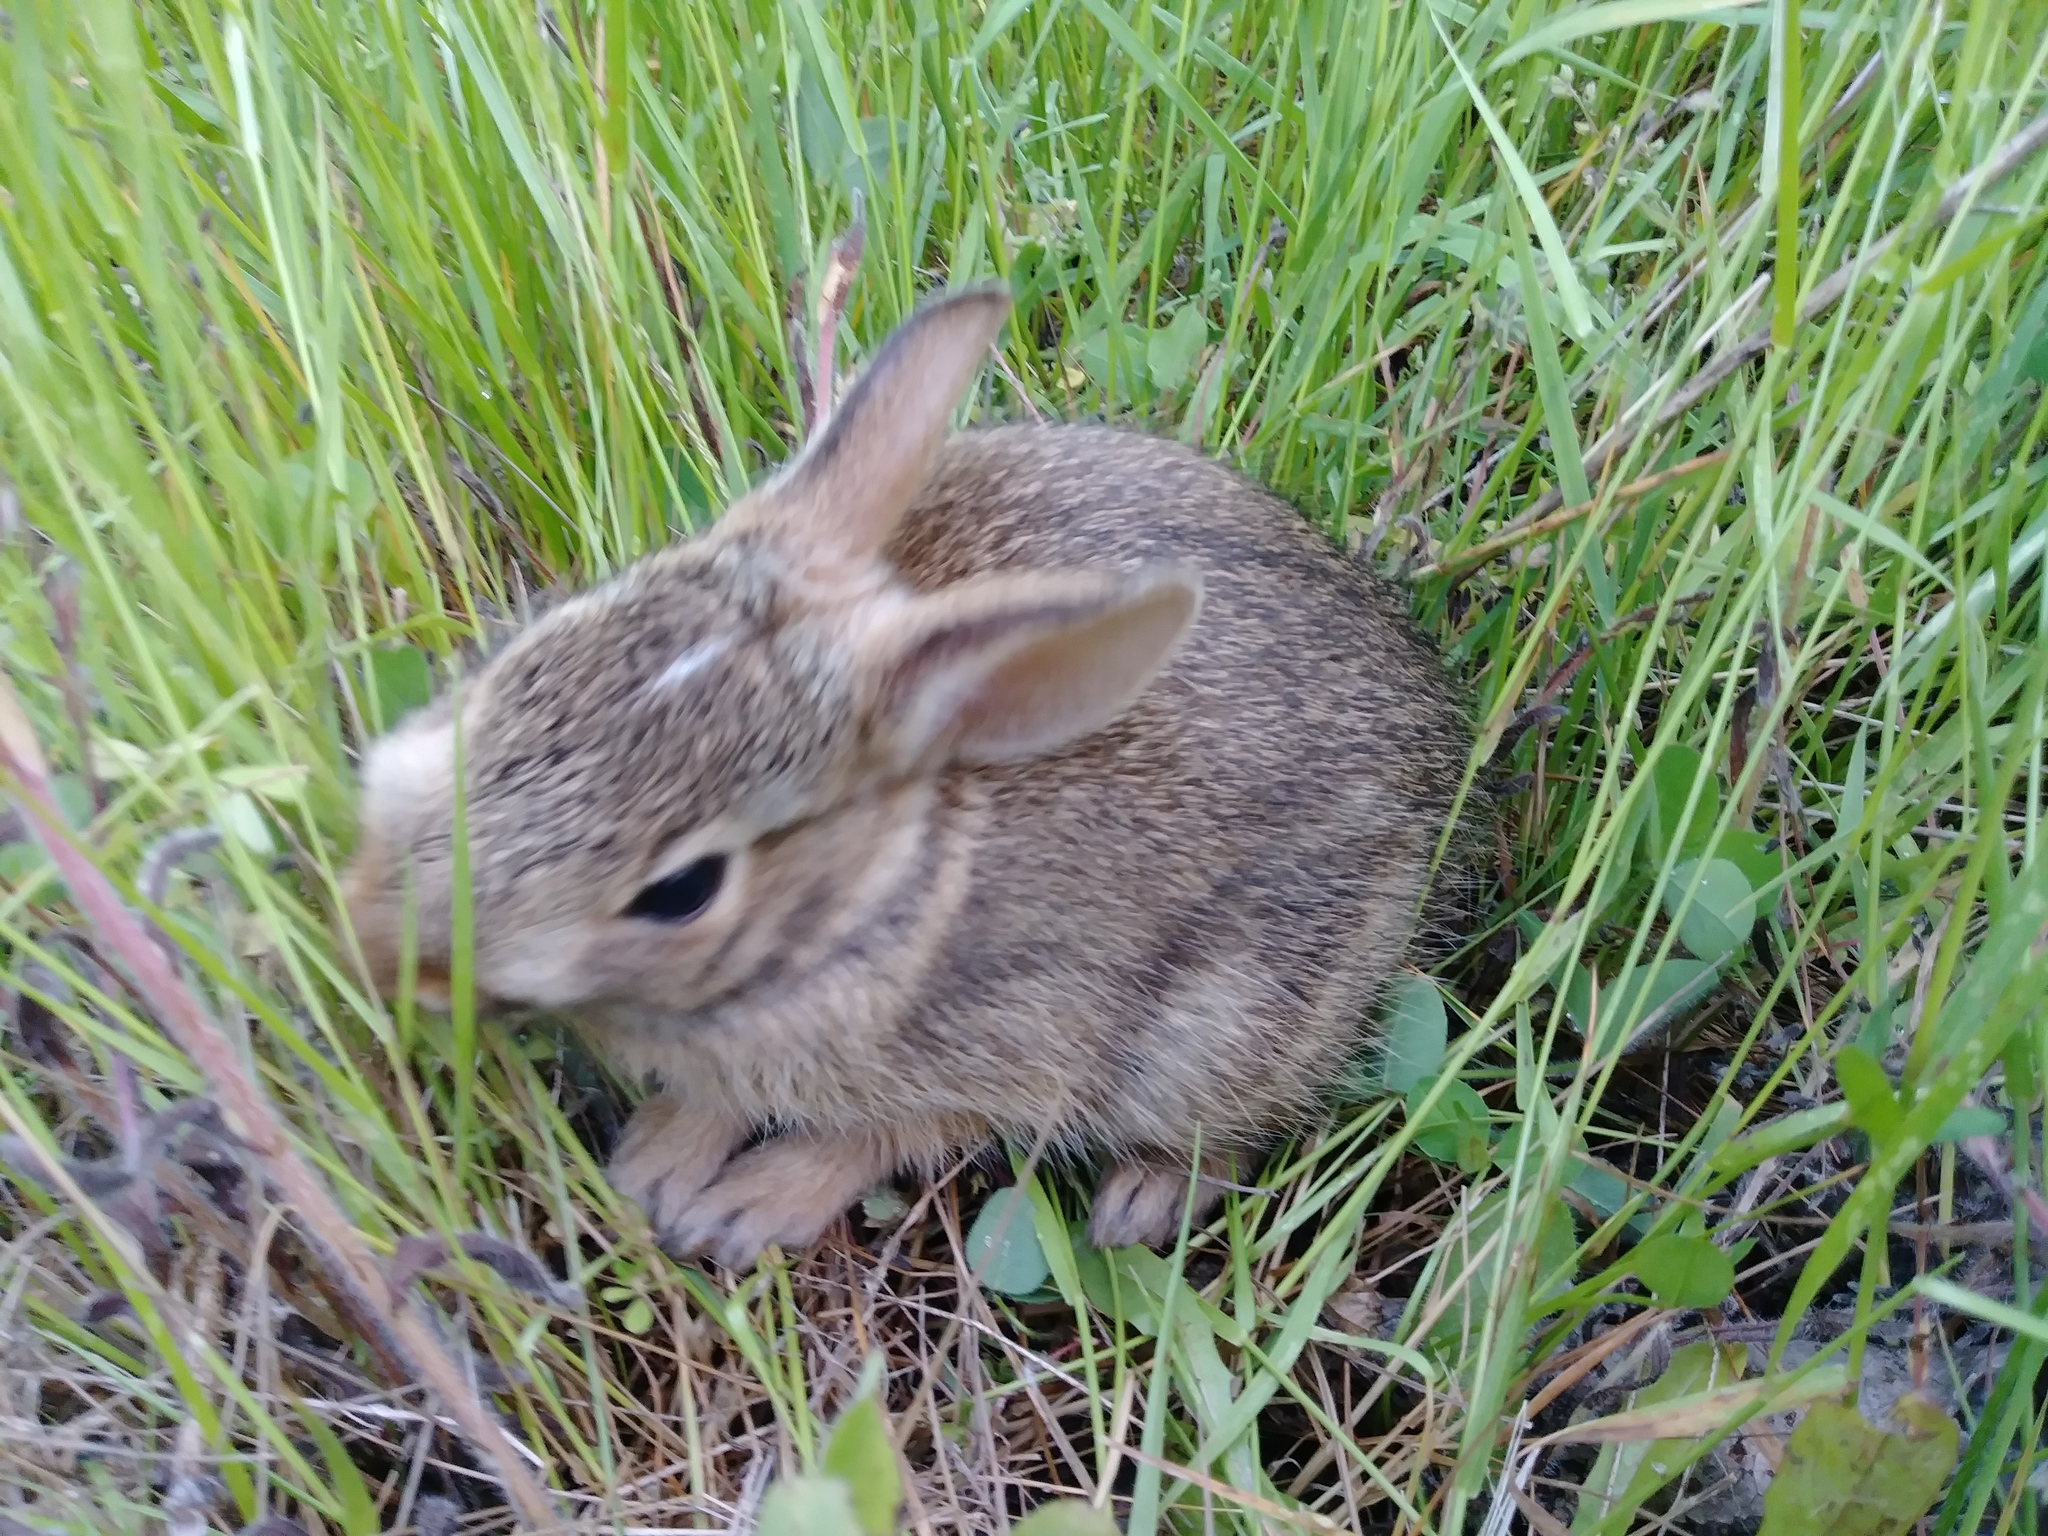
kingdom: Animalia
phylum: Chordata
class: Mammalia
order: Lagomorpha
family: Leporidae
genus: Sylvilagus
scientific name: Sylvilagus floridanus
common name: Eastern cottontail
